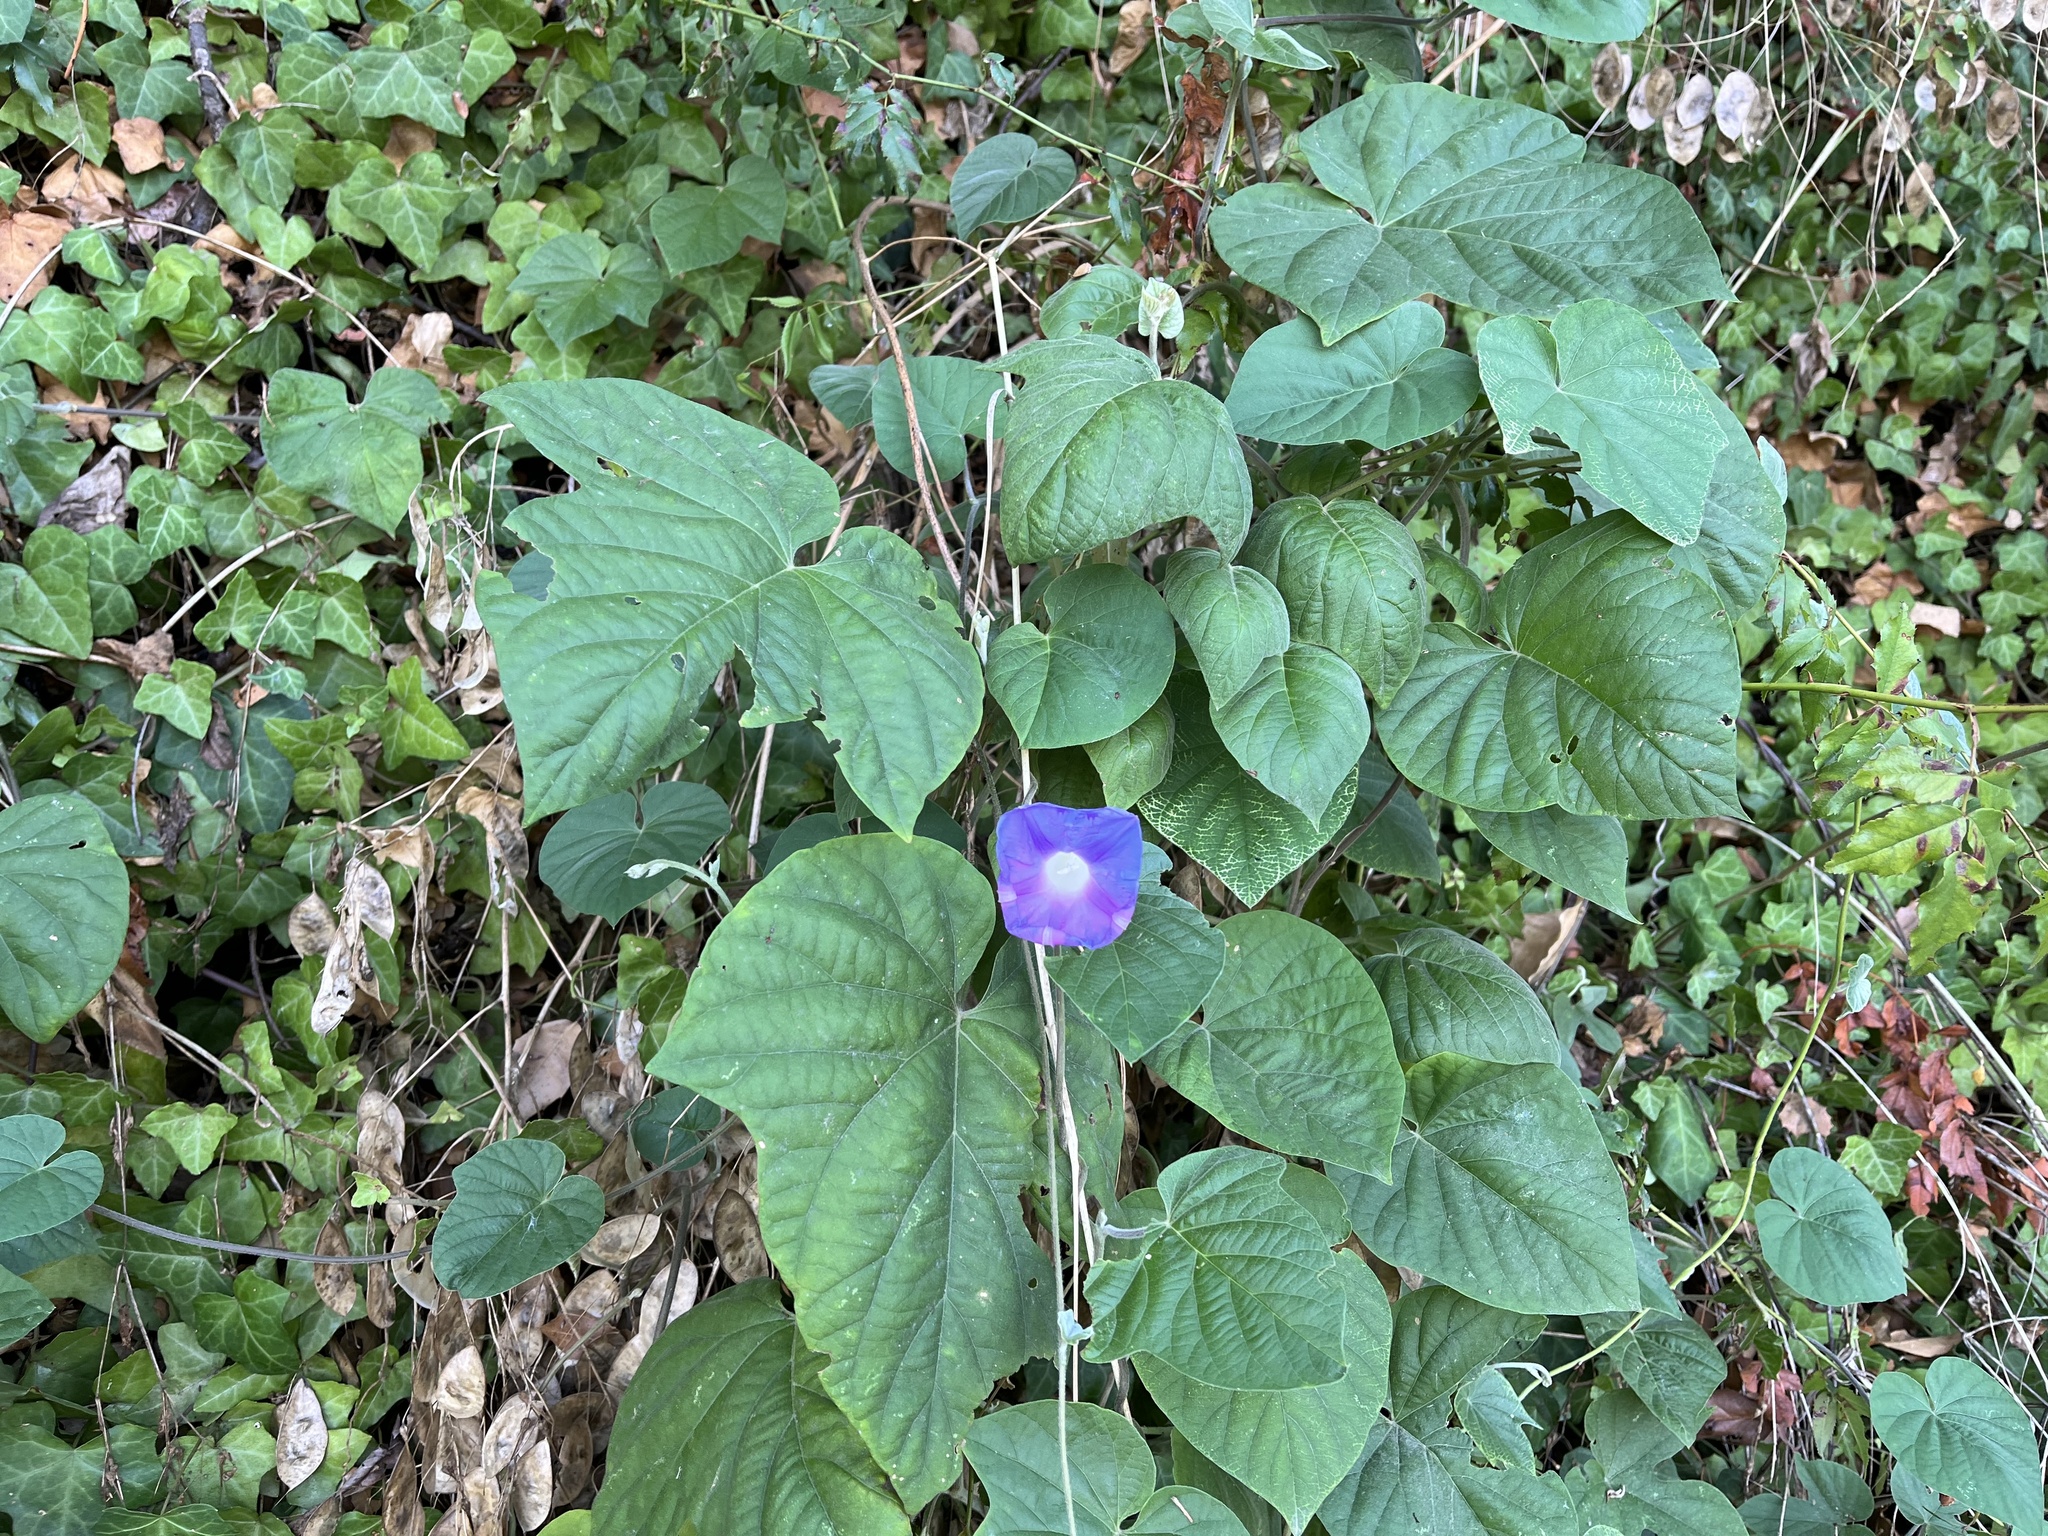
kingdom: Plantae
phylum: Tracheophyta
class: Magnoliopsida
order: Solanales
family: Convolvulaceae
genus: Ipomoea
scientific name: Ipomoea indica
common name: Blue dawnflower
